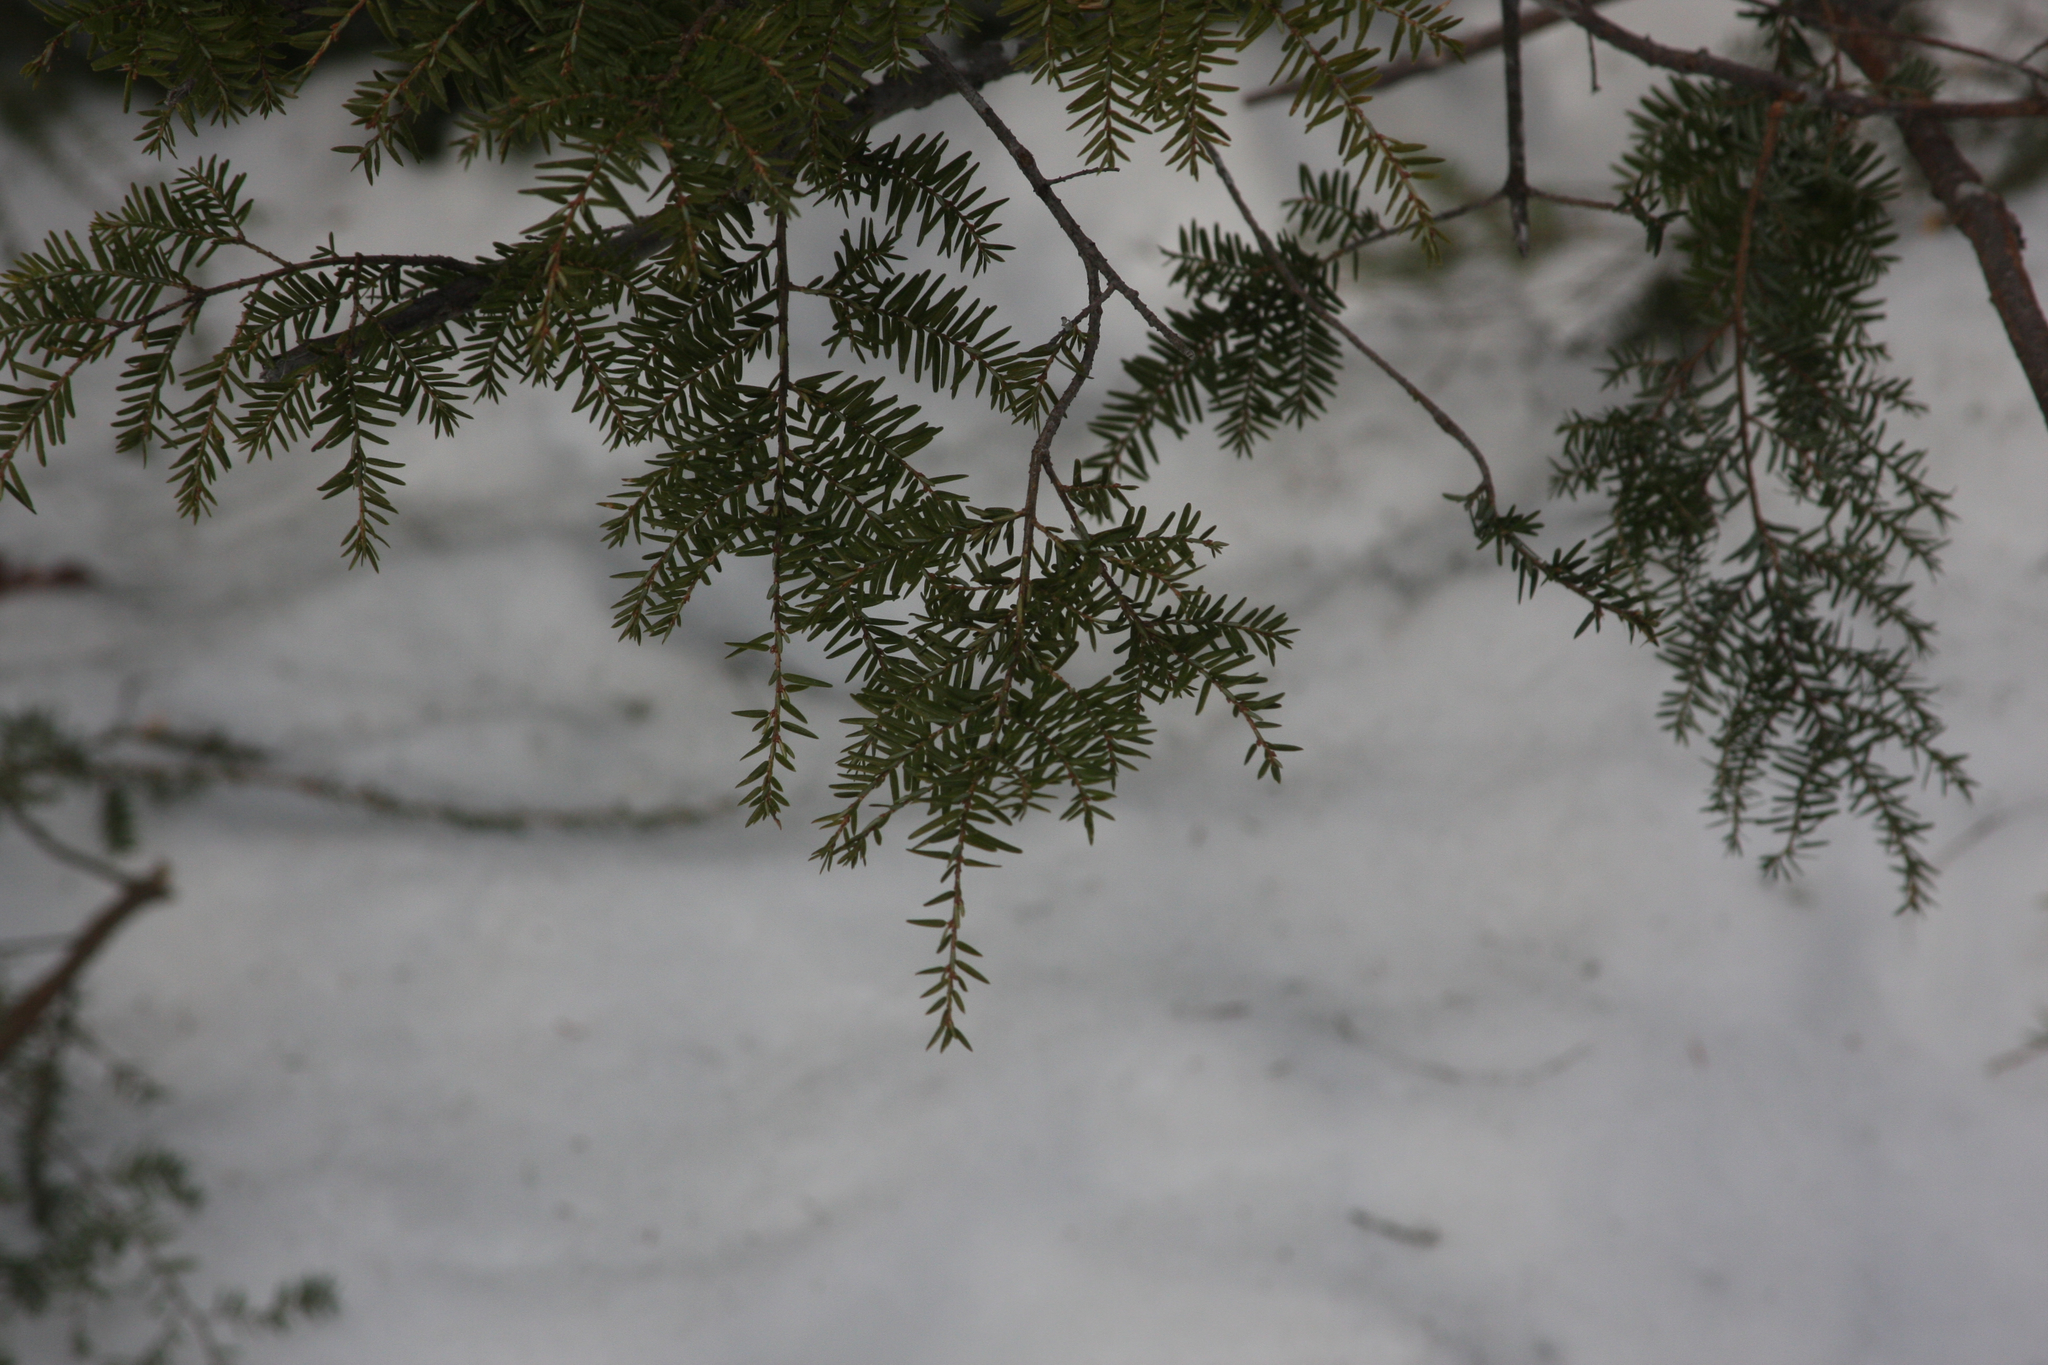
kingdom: Plantae
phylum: Tracheophyta
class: Pinopsida
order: Pinales
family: Pinaceae
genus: Tsuga
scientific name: Tsuga canadensis
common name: Eastern hemlock
